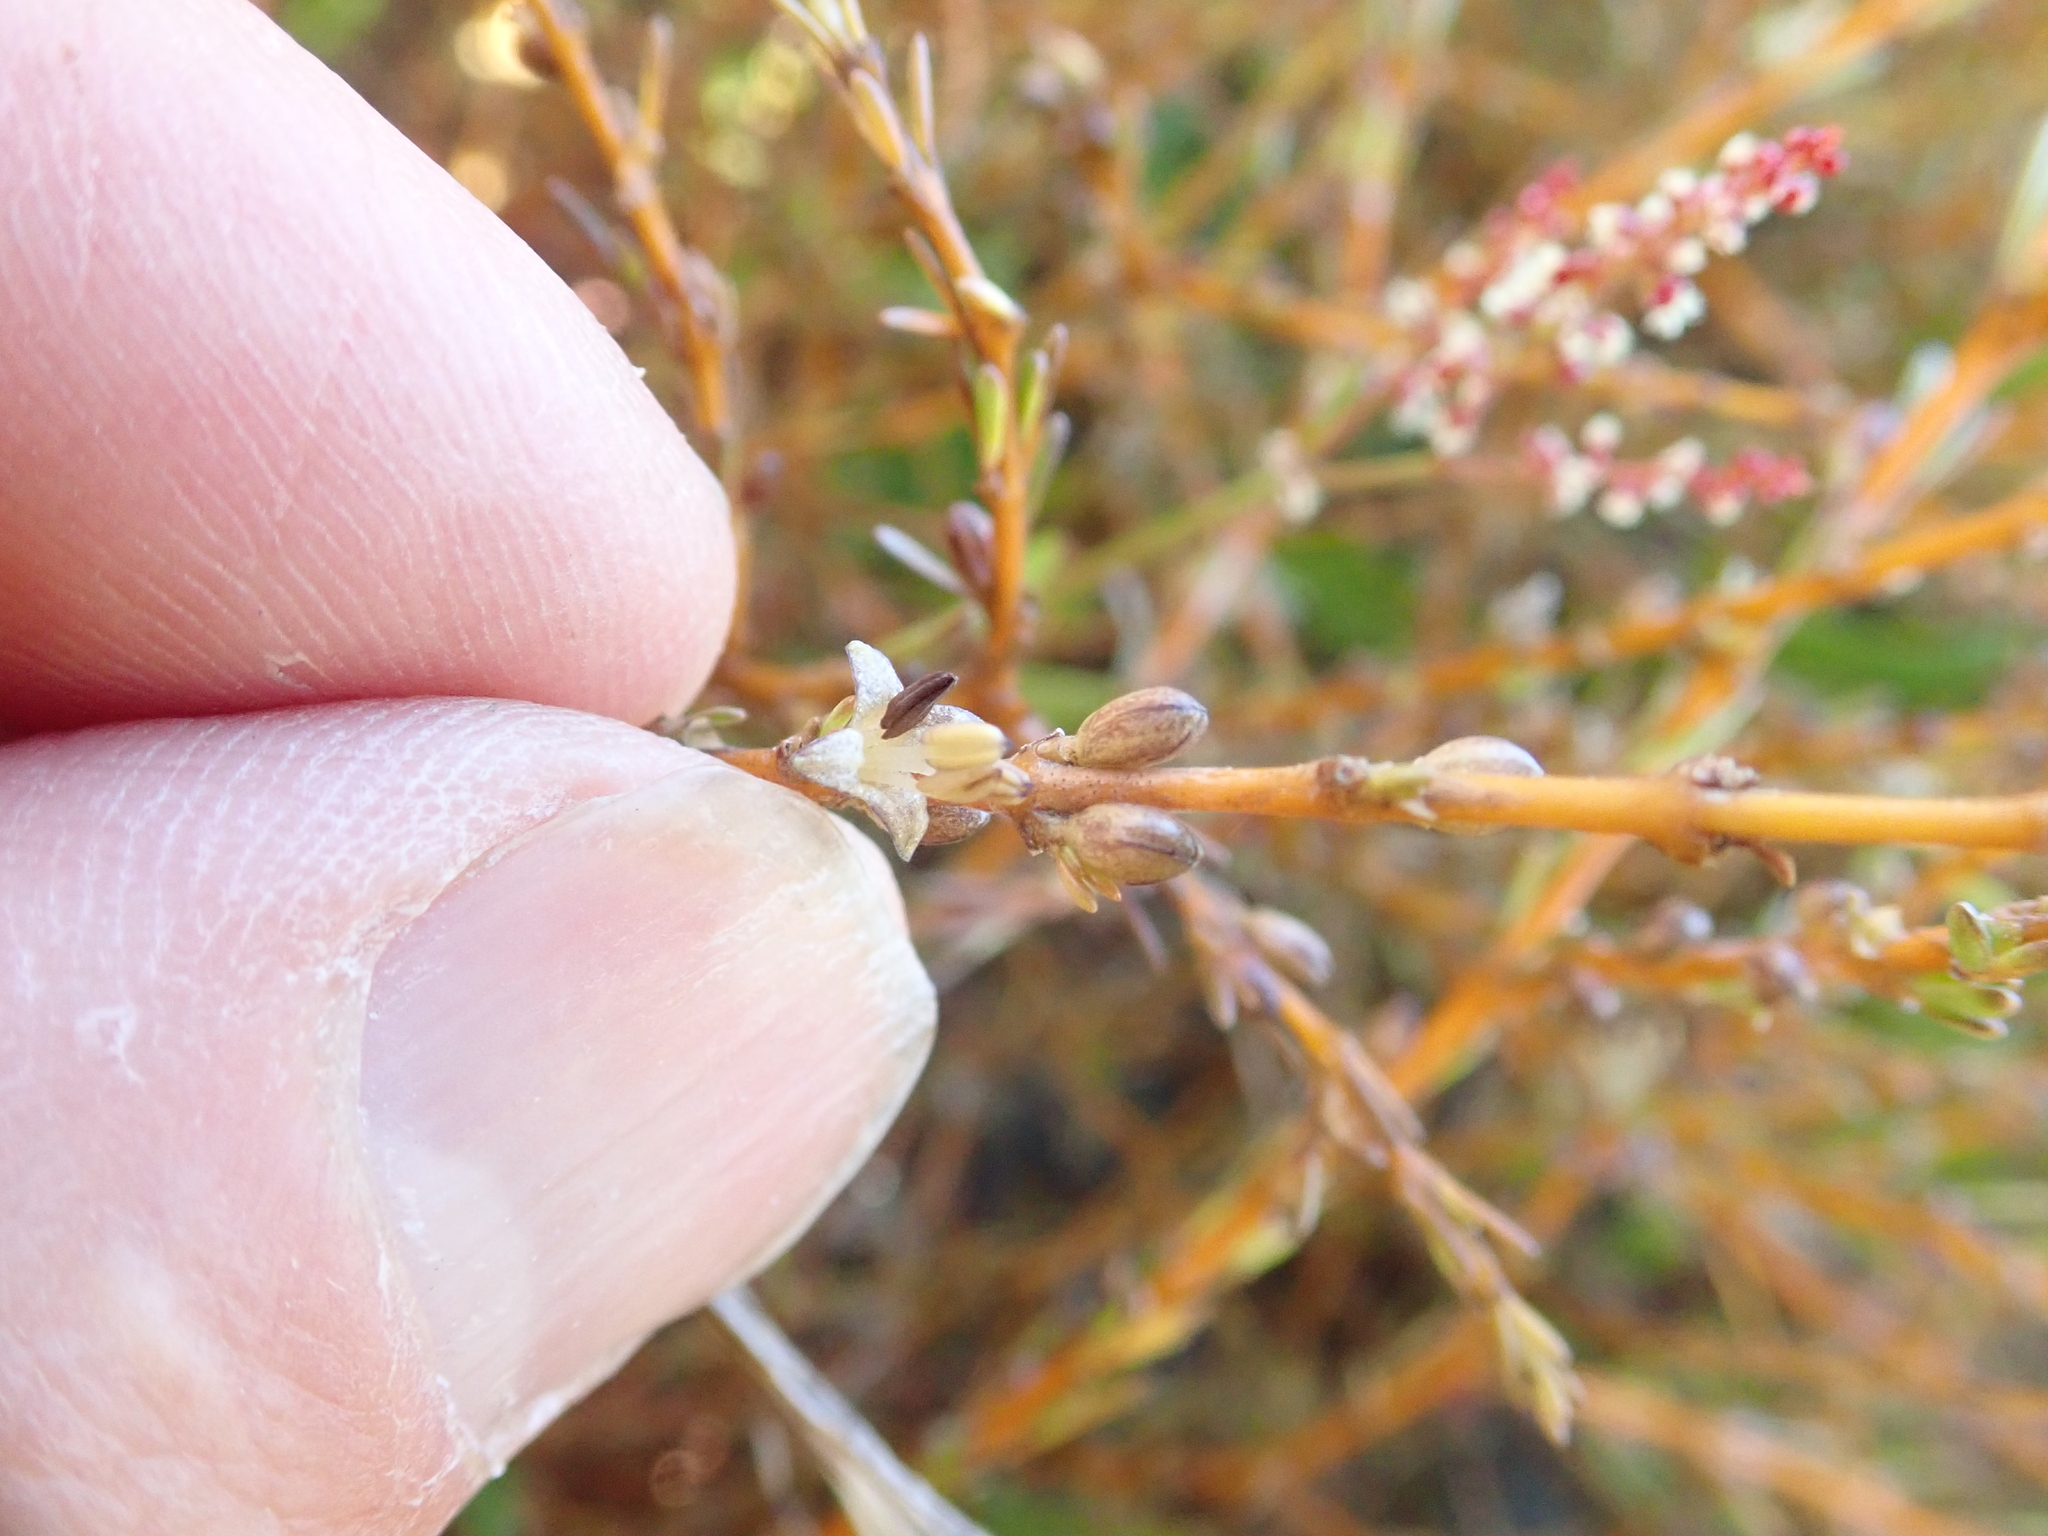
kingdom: Plantae
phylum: Tracheophyta
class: Magnoliopsida
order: Gentianales
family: Rubiaceae
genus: Coprosma
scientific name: Coprosma acerosa
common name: Sand coprosma
